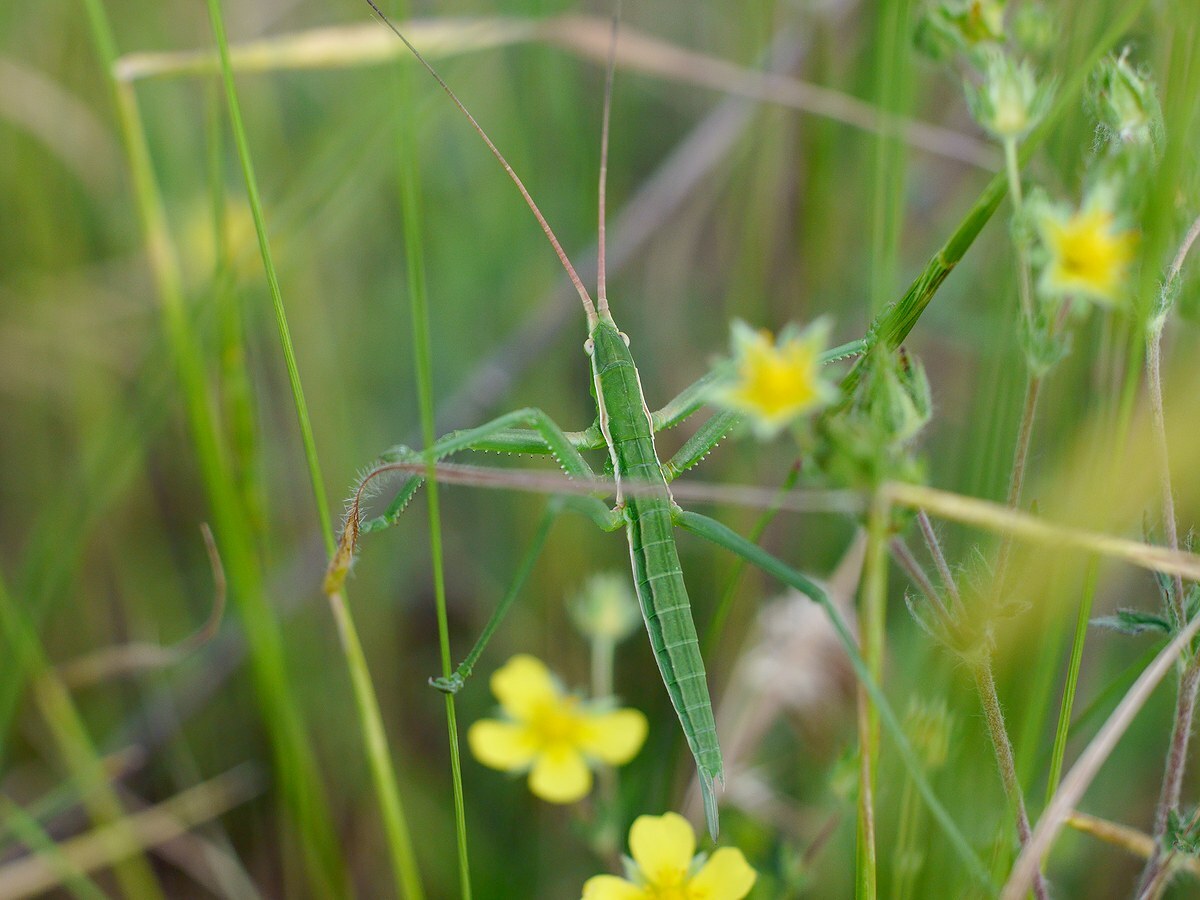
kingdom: Animalia
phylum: Arthropoda
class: Insecta
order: Orthoptera
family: Tettigoniidae
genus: Saga
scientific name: Saga pedo
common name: Common predatory bush-cricket
